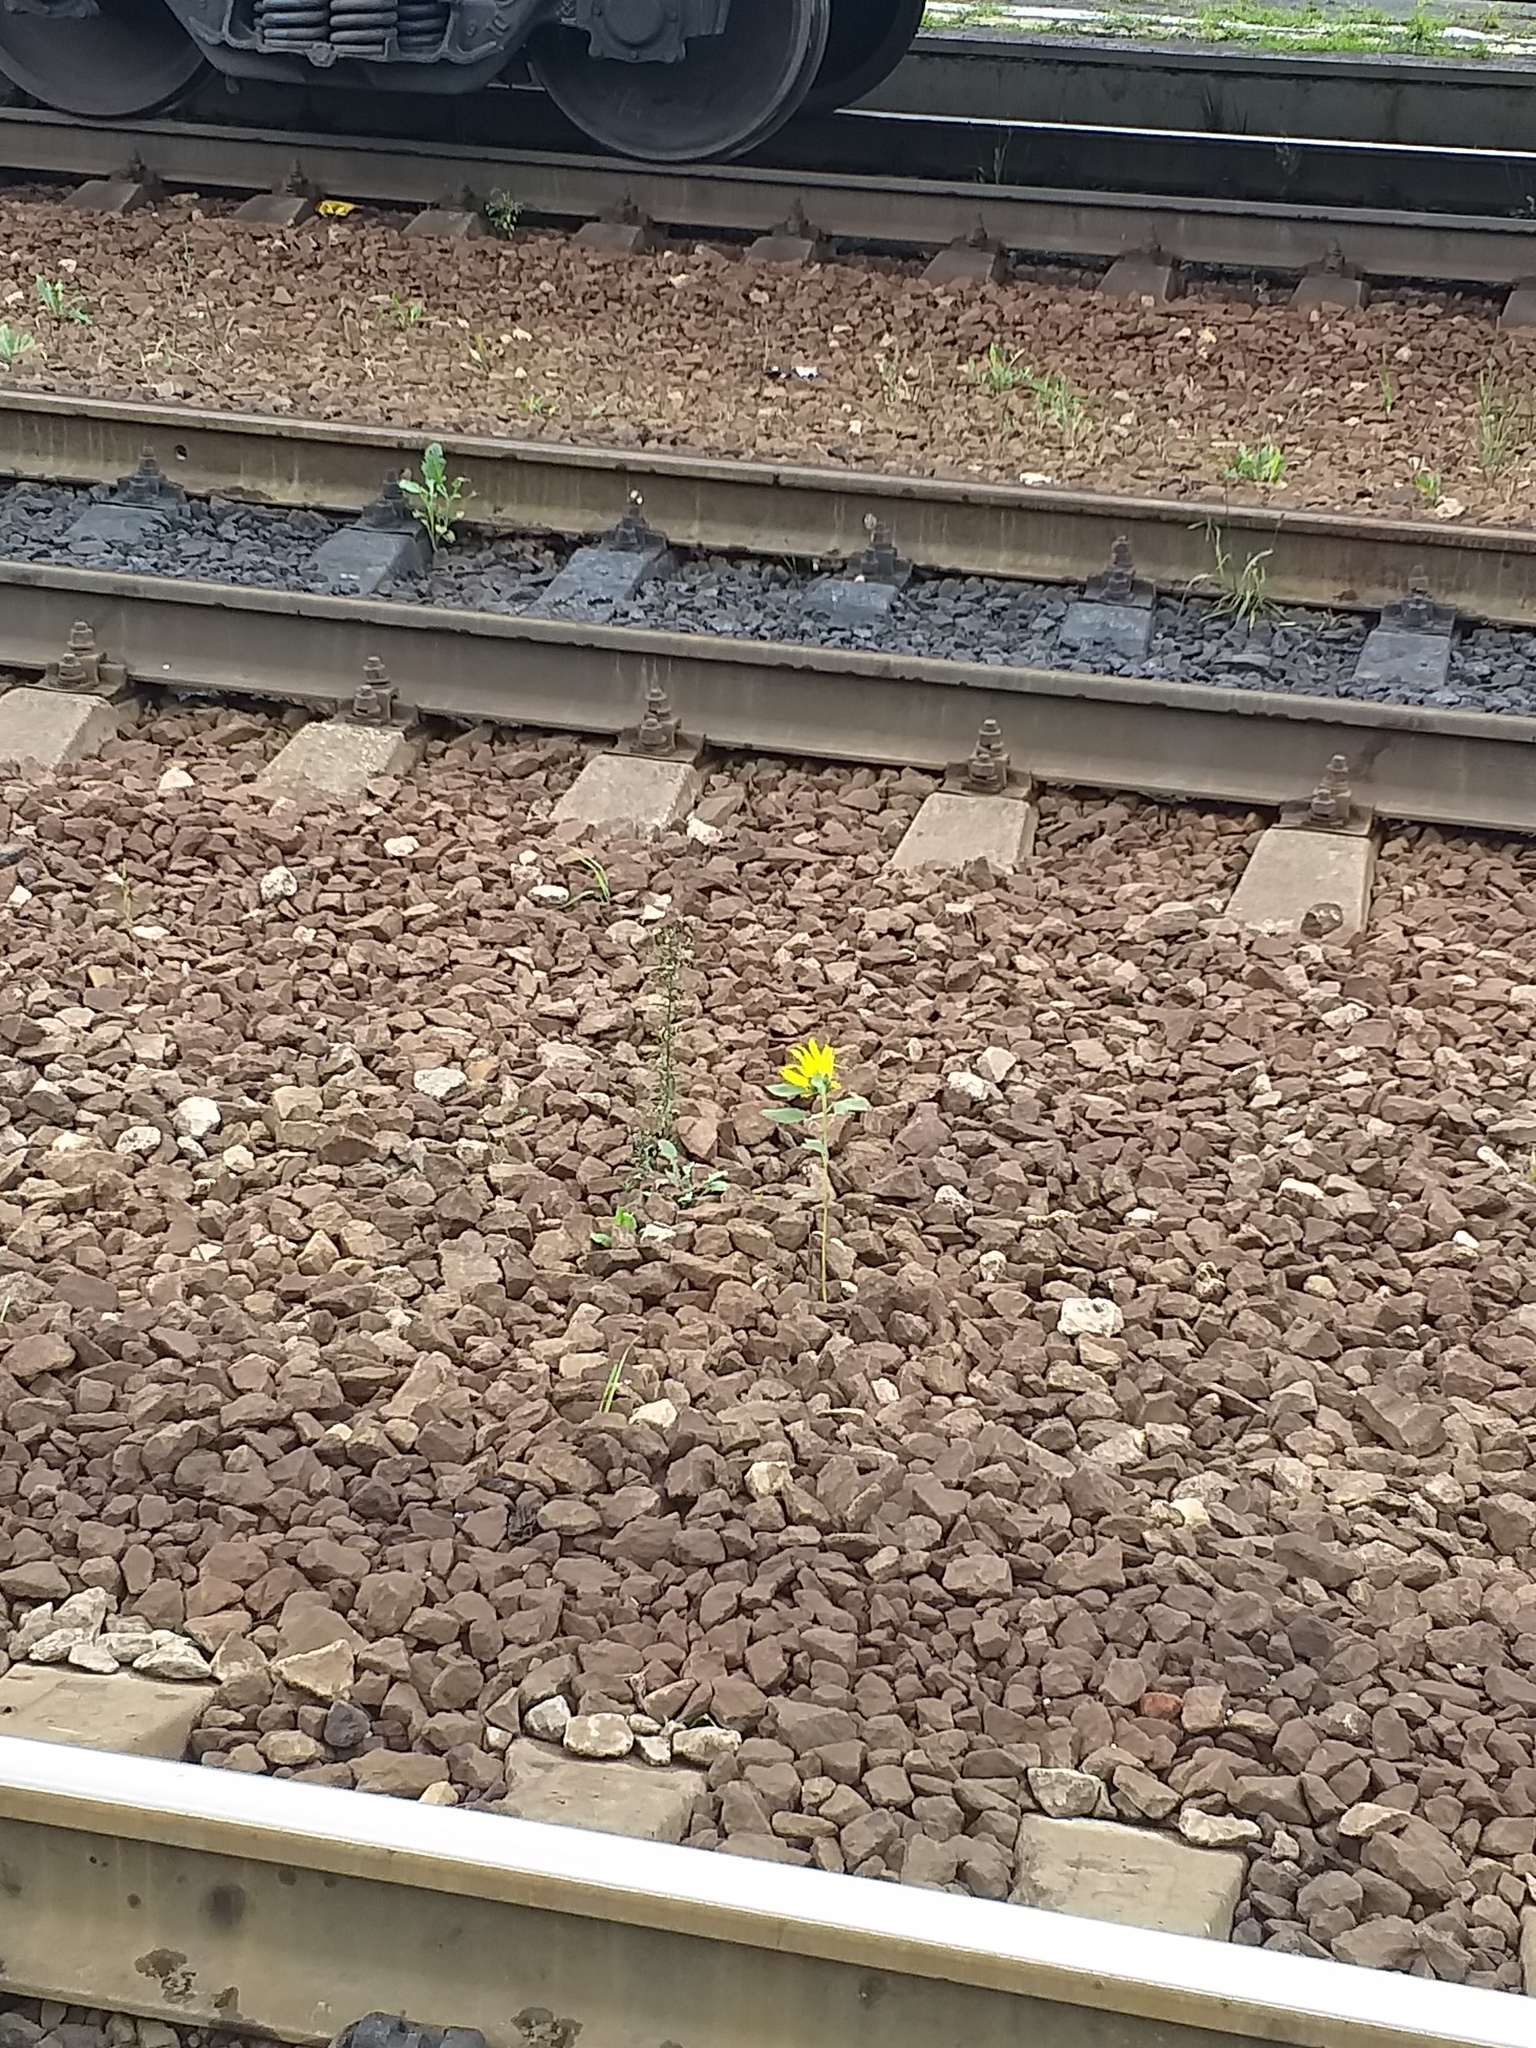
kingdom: Plantae
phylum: Tracheophyta
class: Magnoliopsida
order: Asterales
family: Asteraceae
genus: Helianthus
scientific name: Helianthus annuus
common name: Sunflower
